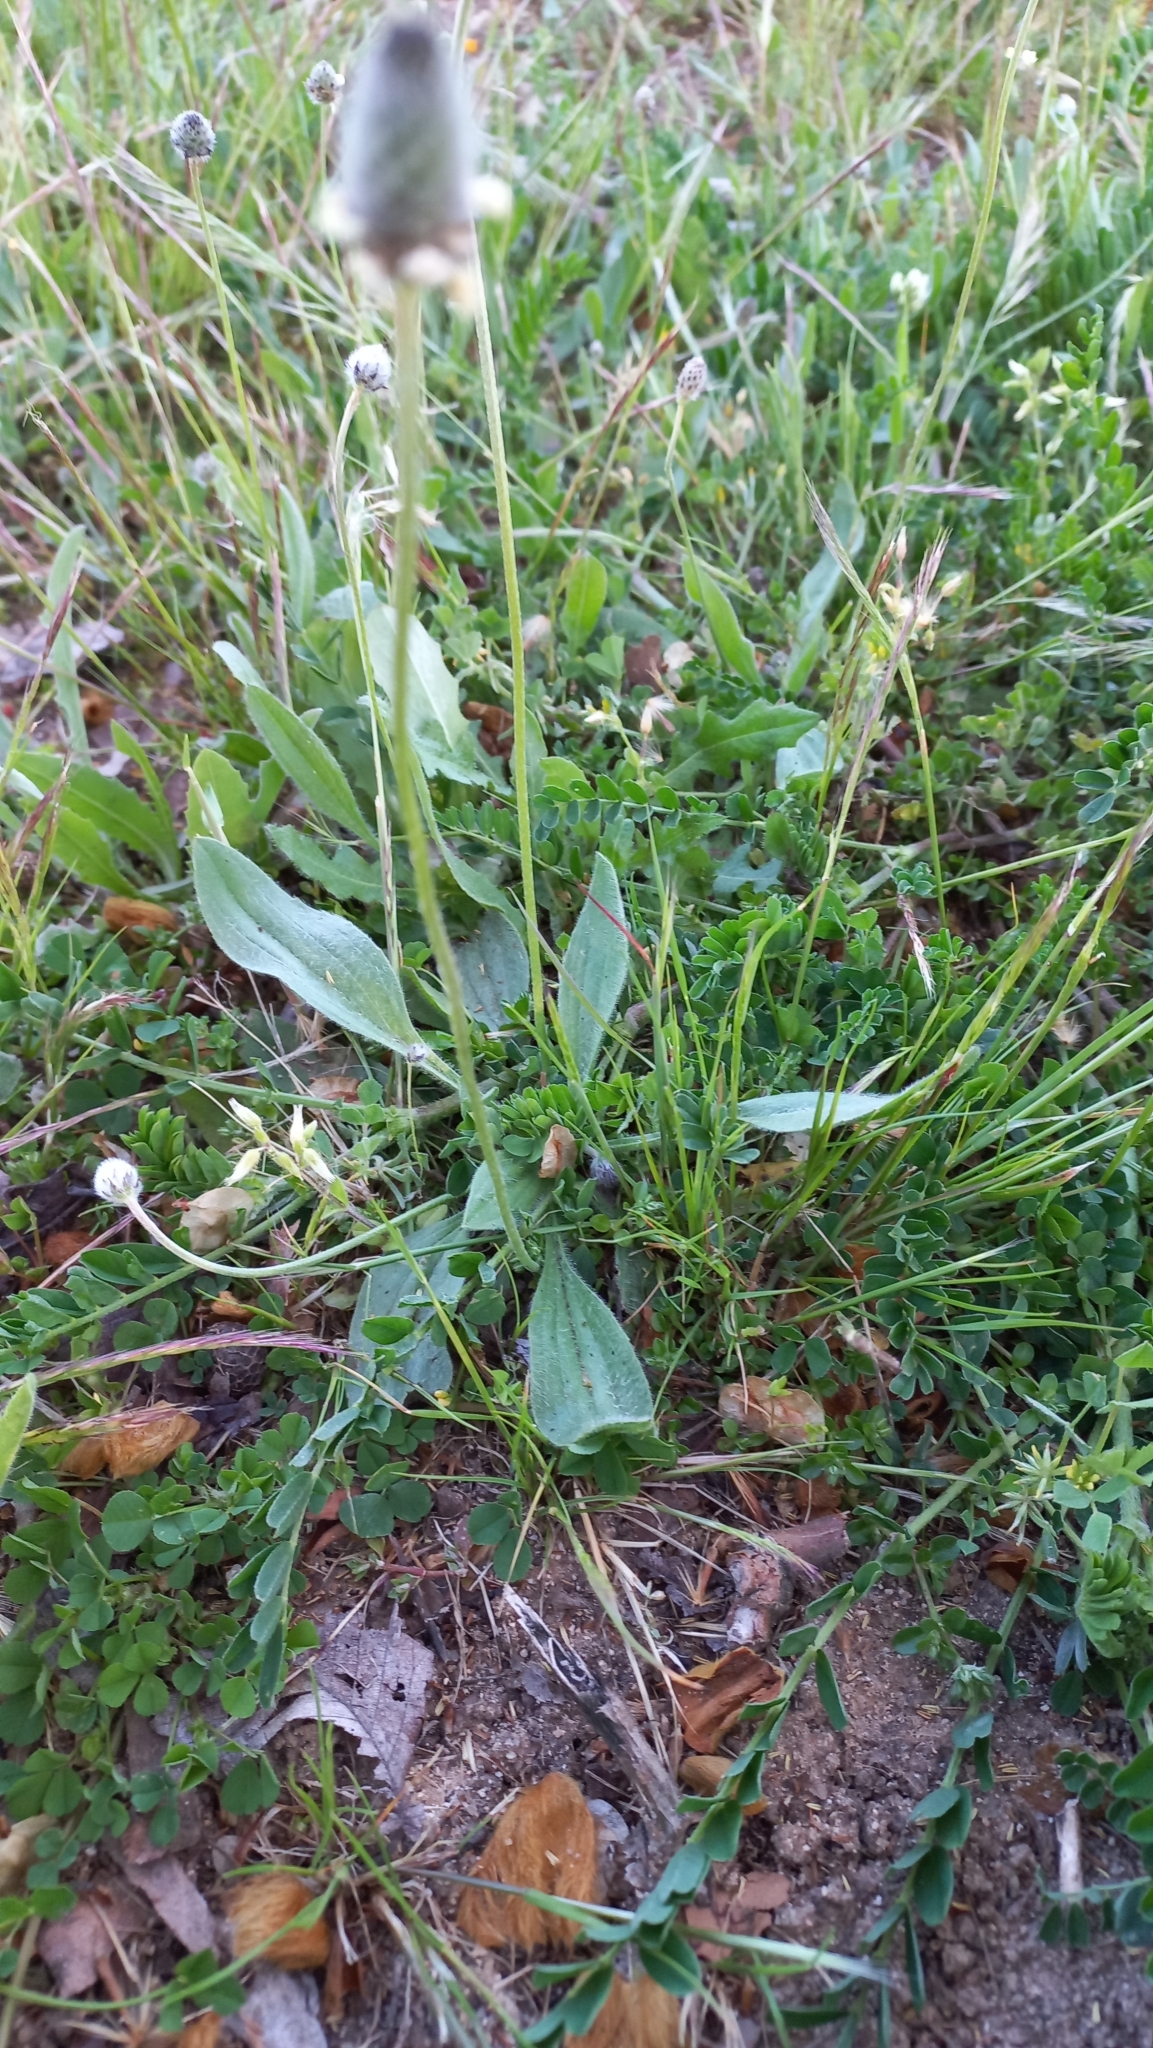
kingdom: Plantae
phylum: Tracheophyta
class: Magnoliopsida
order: Lamiales
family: Plantaginaceae
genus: Plantago
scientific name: Plantago lagopus
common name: Hare-foot plantain
